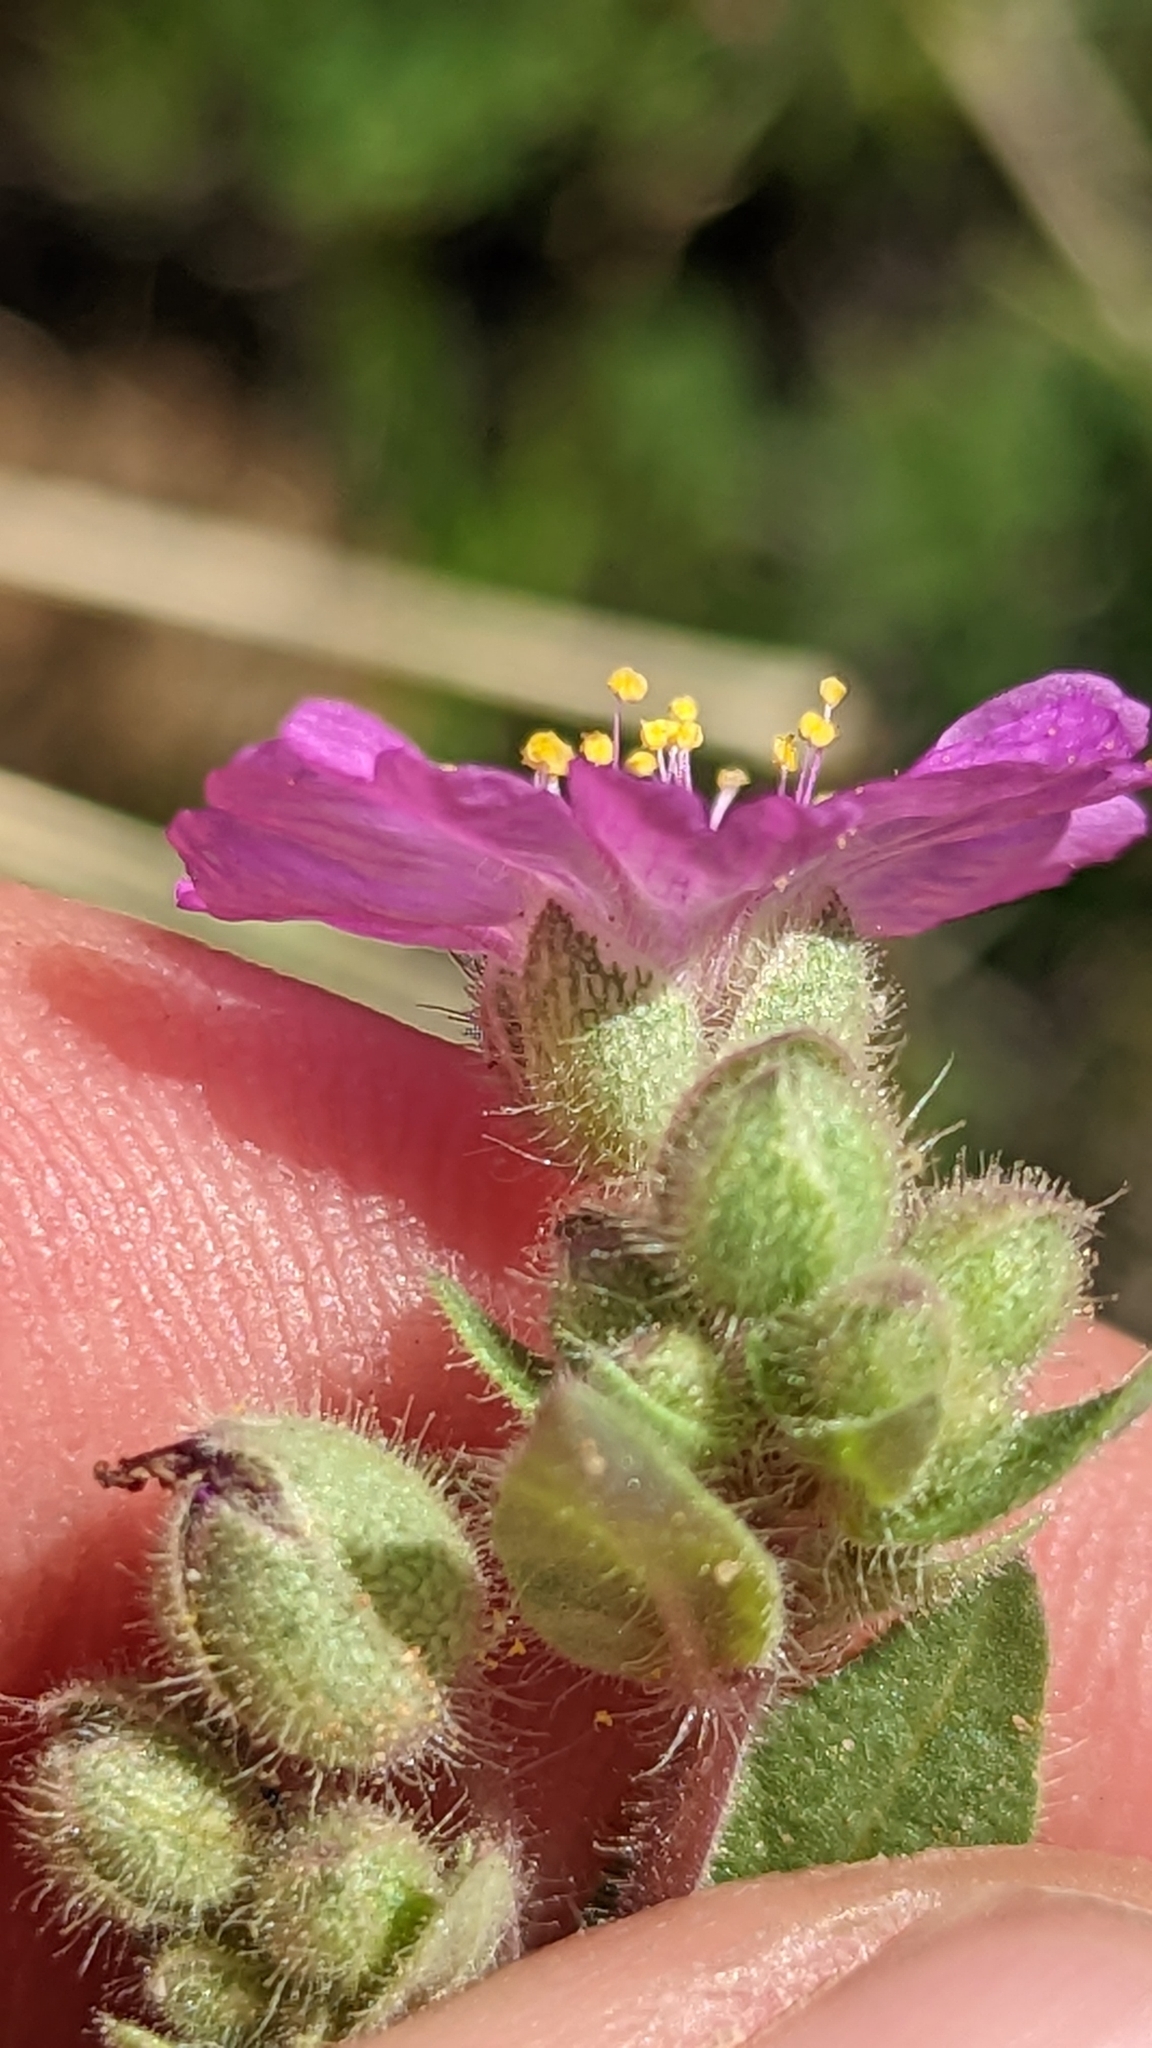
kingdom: Plantae
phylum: Tracheophyta
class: Magnoliopsida
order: Caryophyllales
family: Nyctaginaceae
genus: Allionia
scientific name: Allionia incarnata
